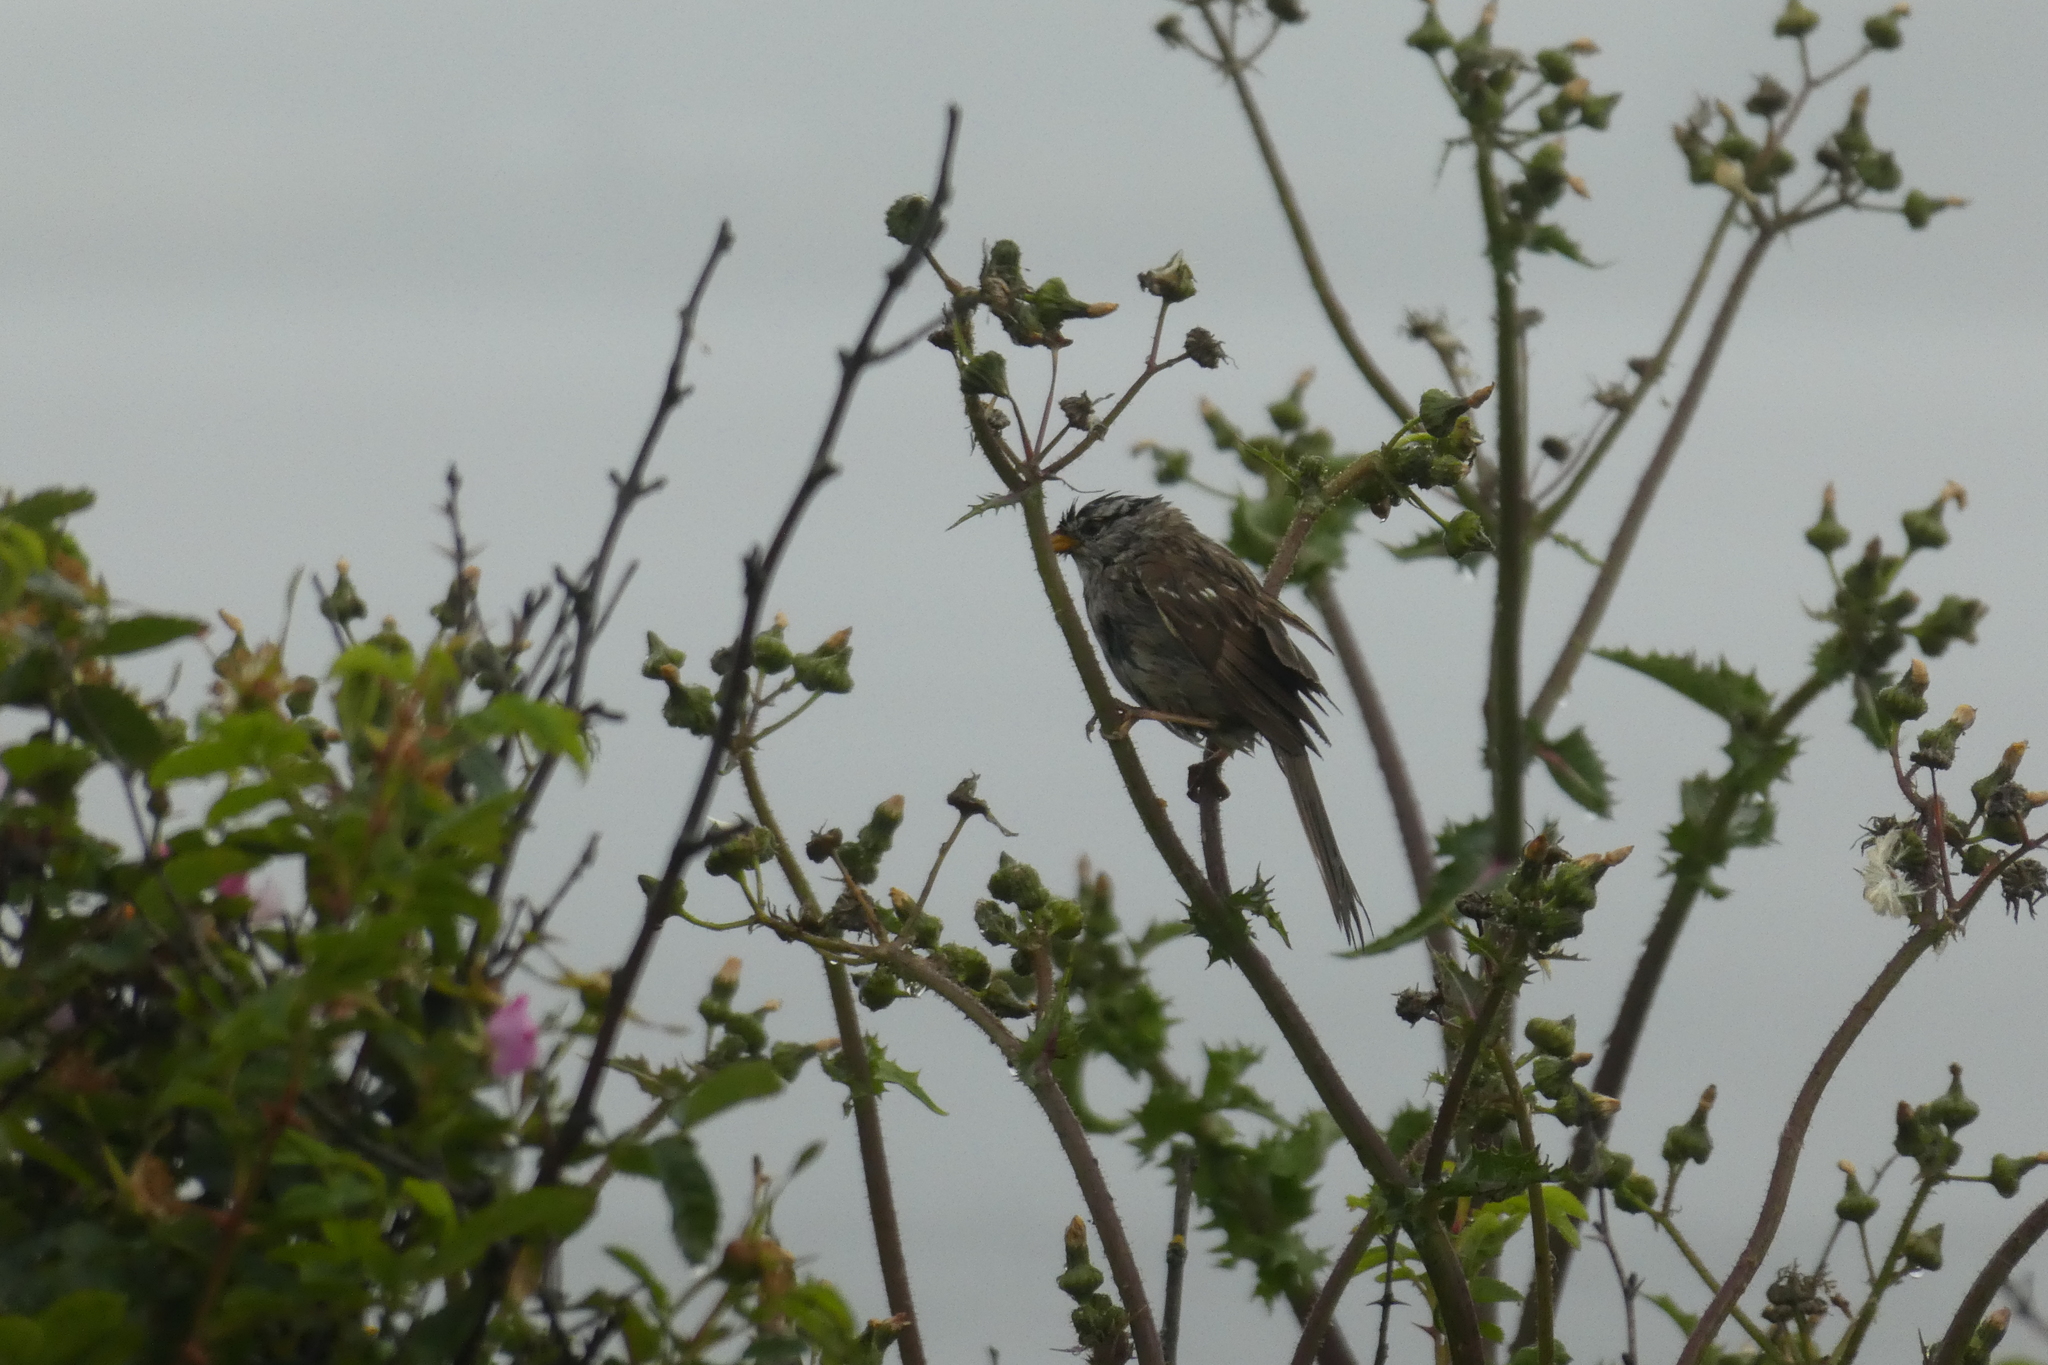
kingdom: Animalia
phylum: Chordata
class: Aves
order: Passeriformes
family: Passerellidae
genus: Zonotrichia
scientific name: Zonotrichia leucophrys
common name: White-crowned sparrow
